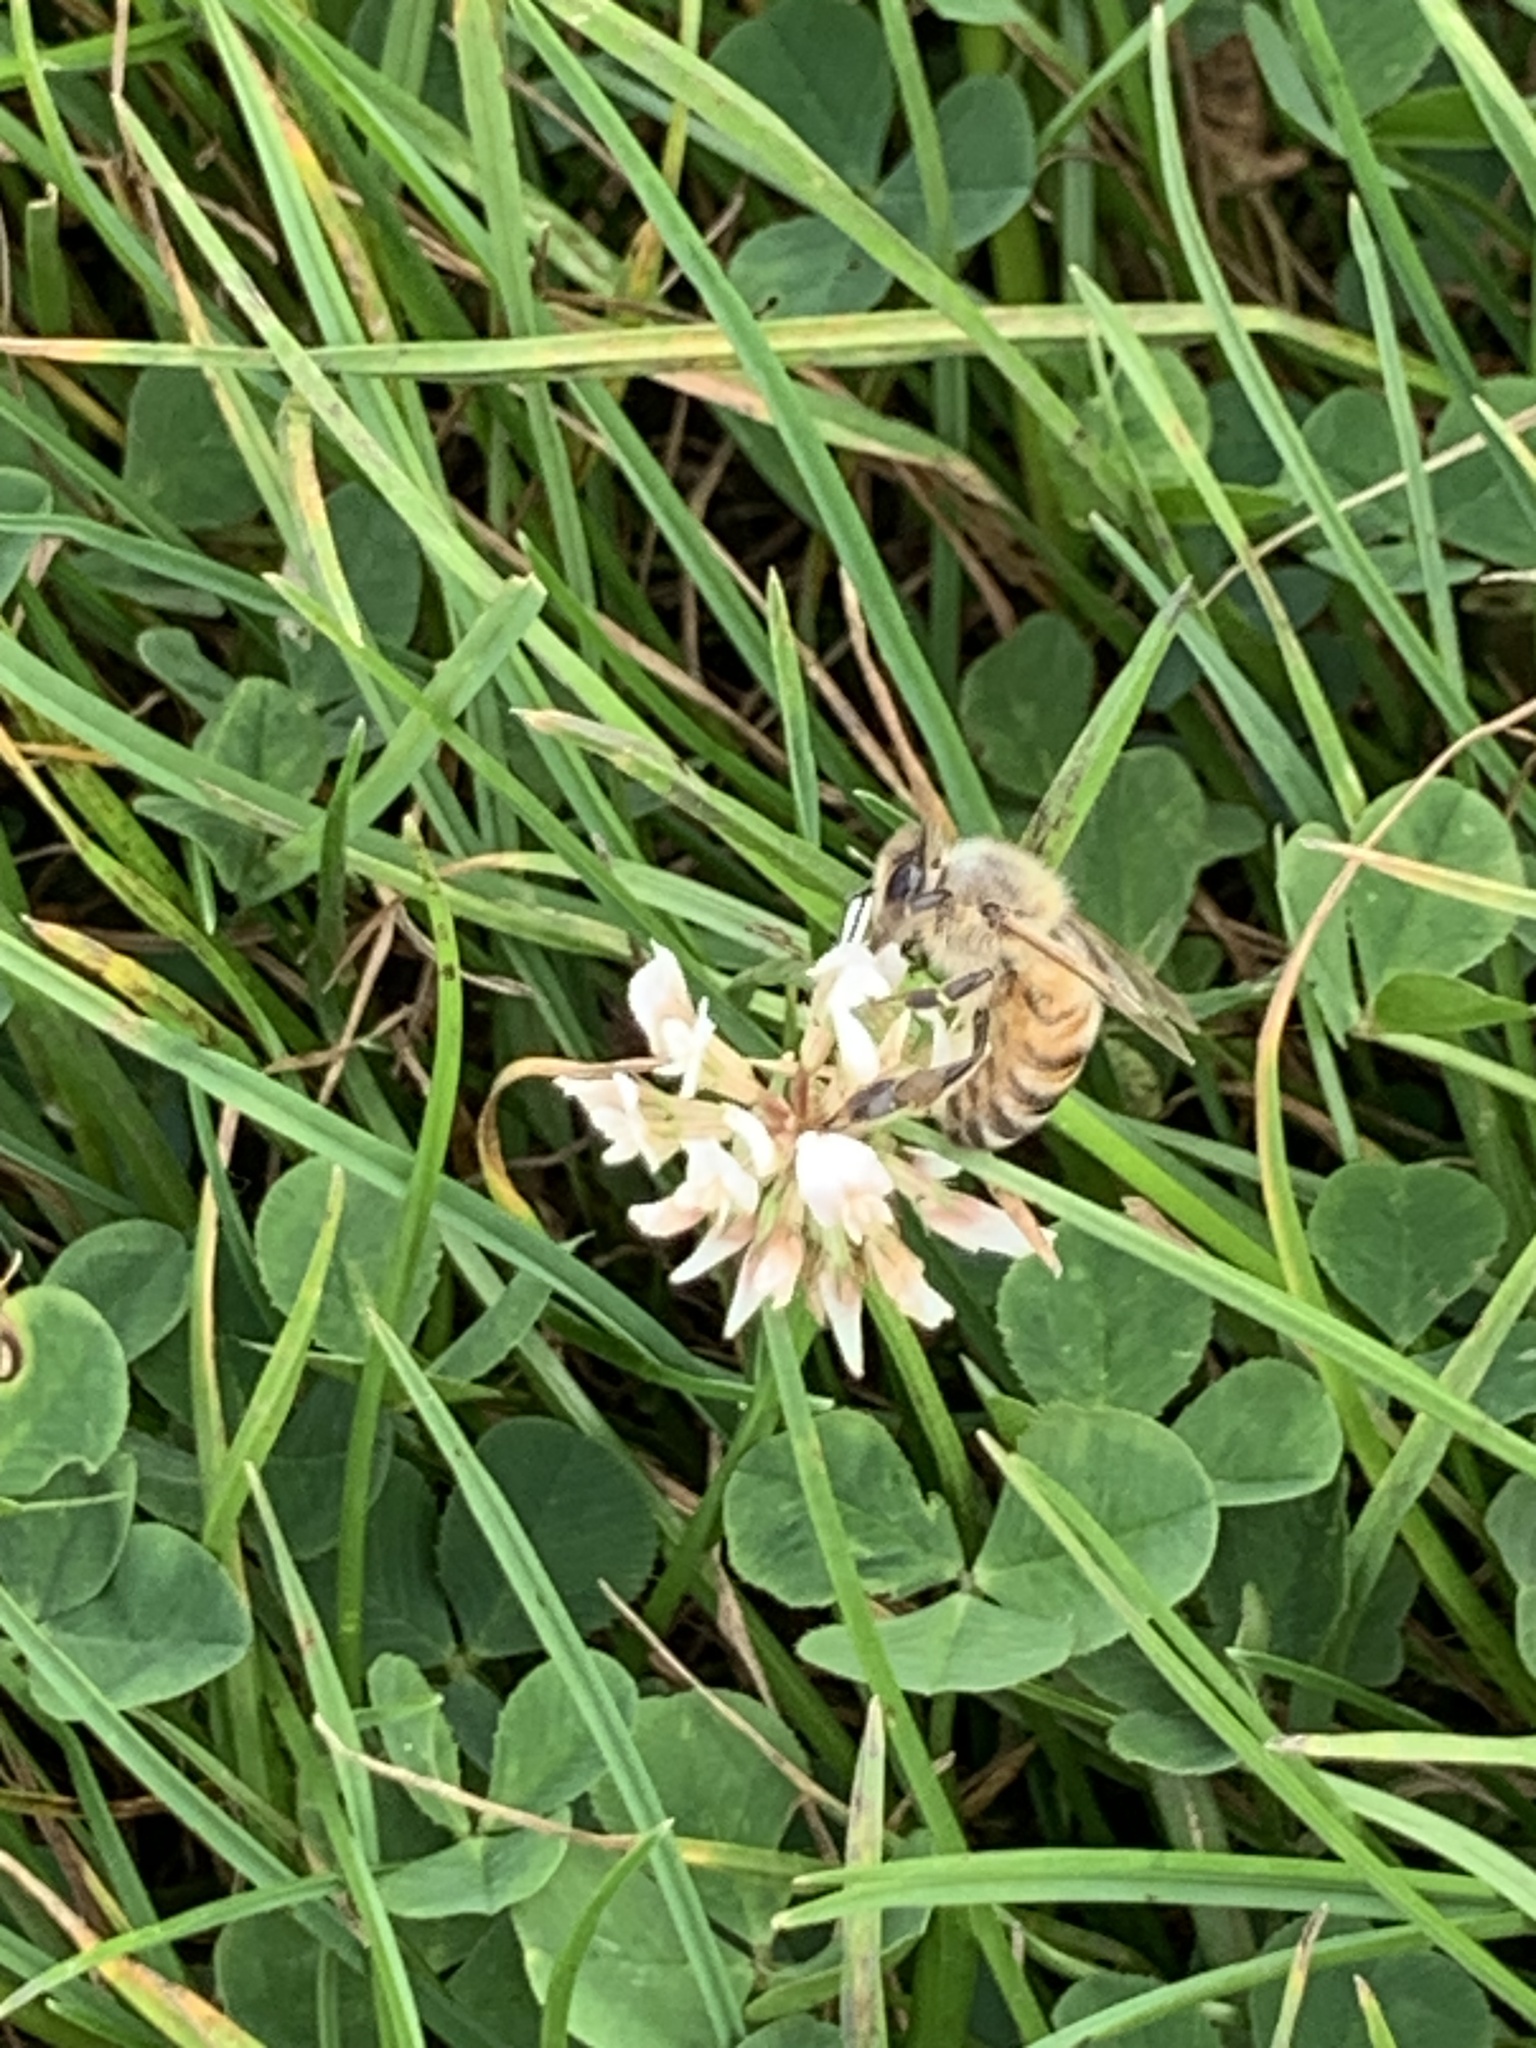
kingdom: Animalia
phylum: Arthropoda
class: Insecta
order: Hymenoptera
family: Apidae
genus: Apis
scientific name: Apis mellifera
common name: Honey bee
